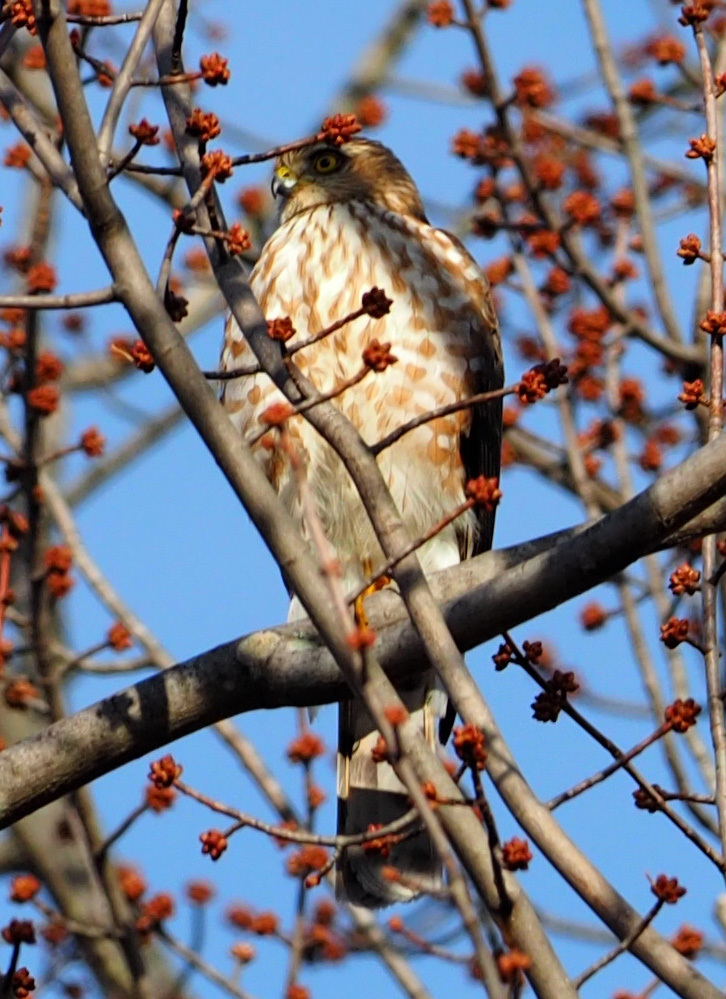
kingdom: Animalia
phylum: Chordata
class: Aves
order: Accipitriformes
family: Accipitridae
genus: Accipiter
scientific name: Accipiter striatus
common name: Sharp-shinned hawk
